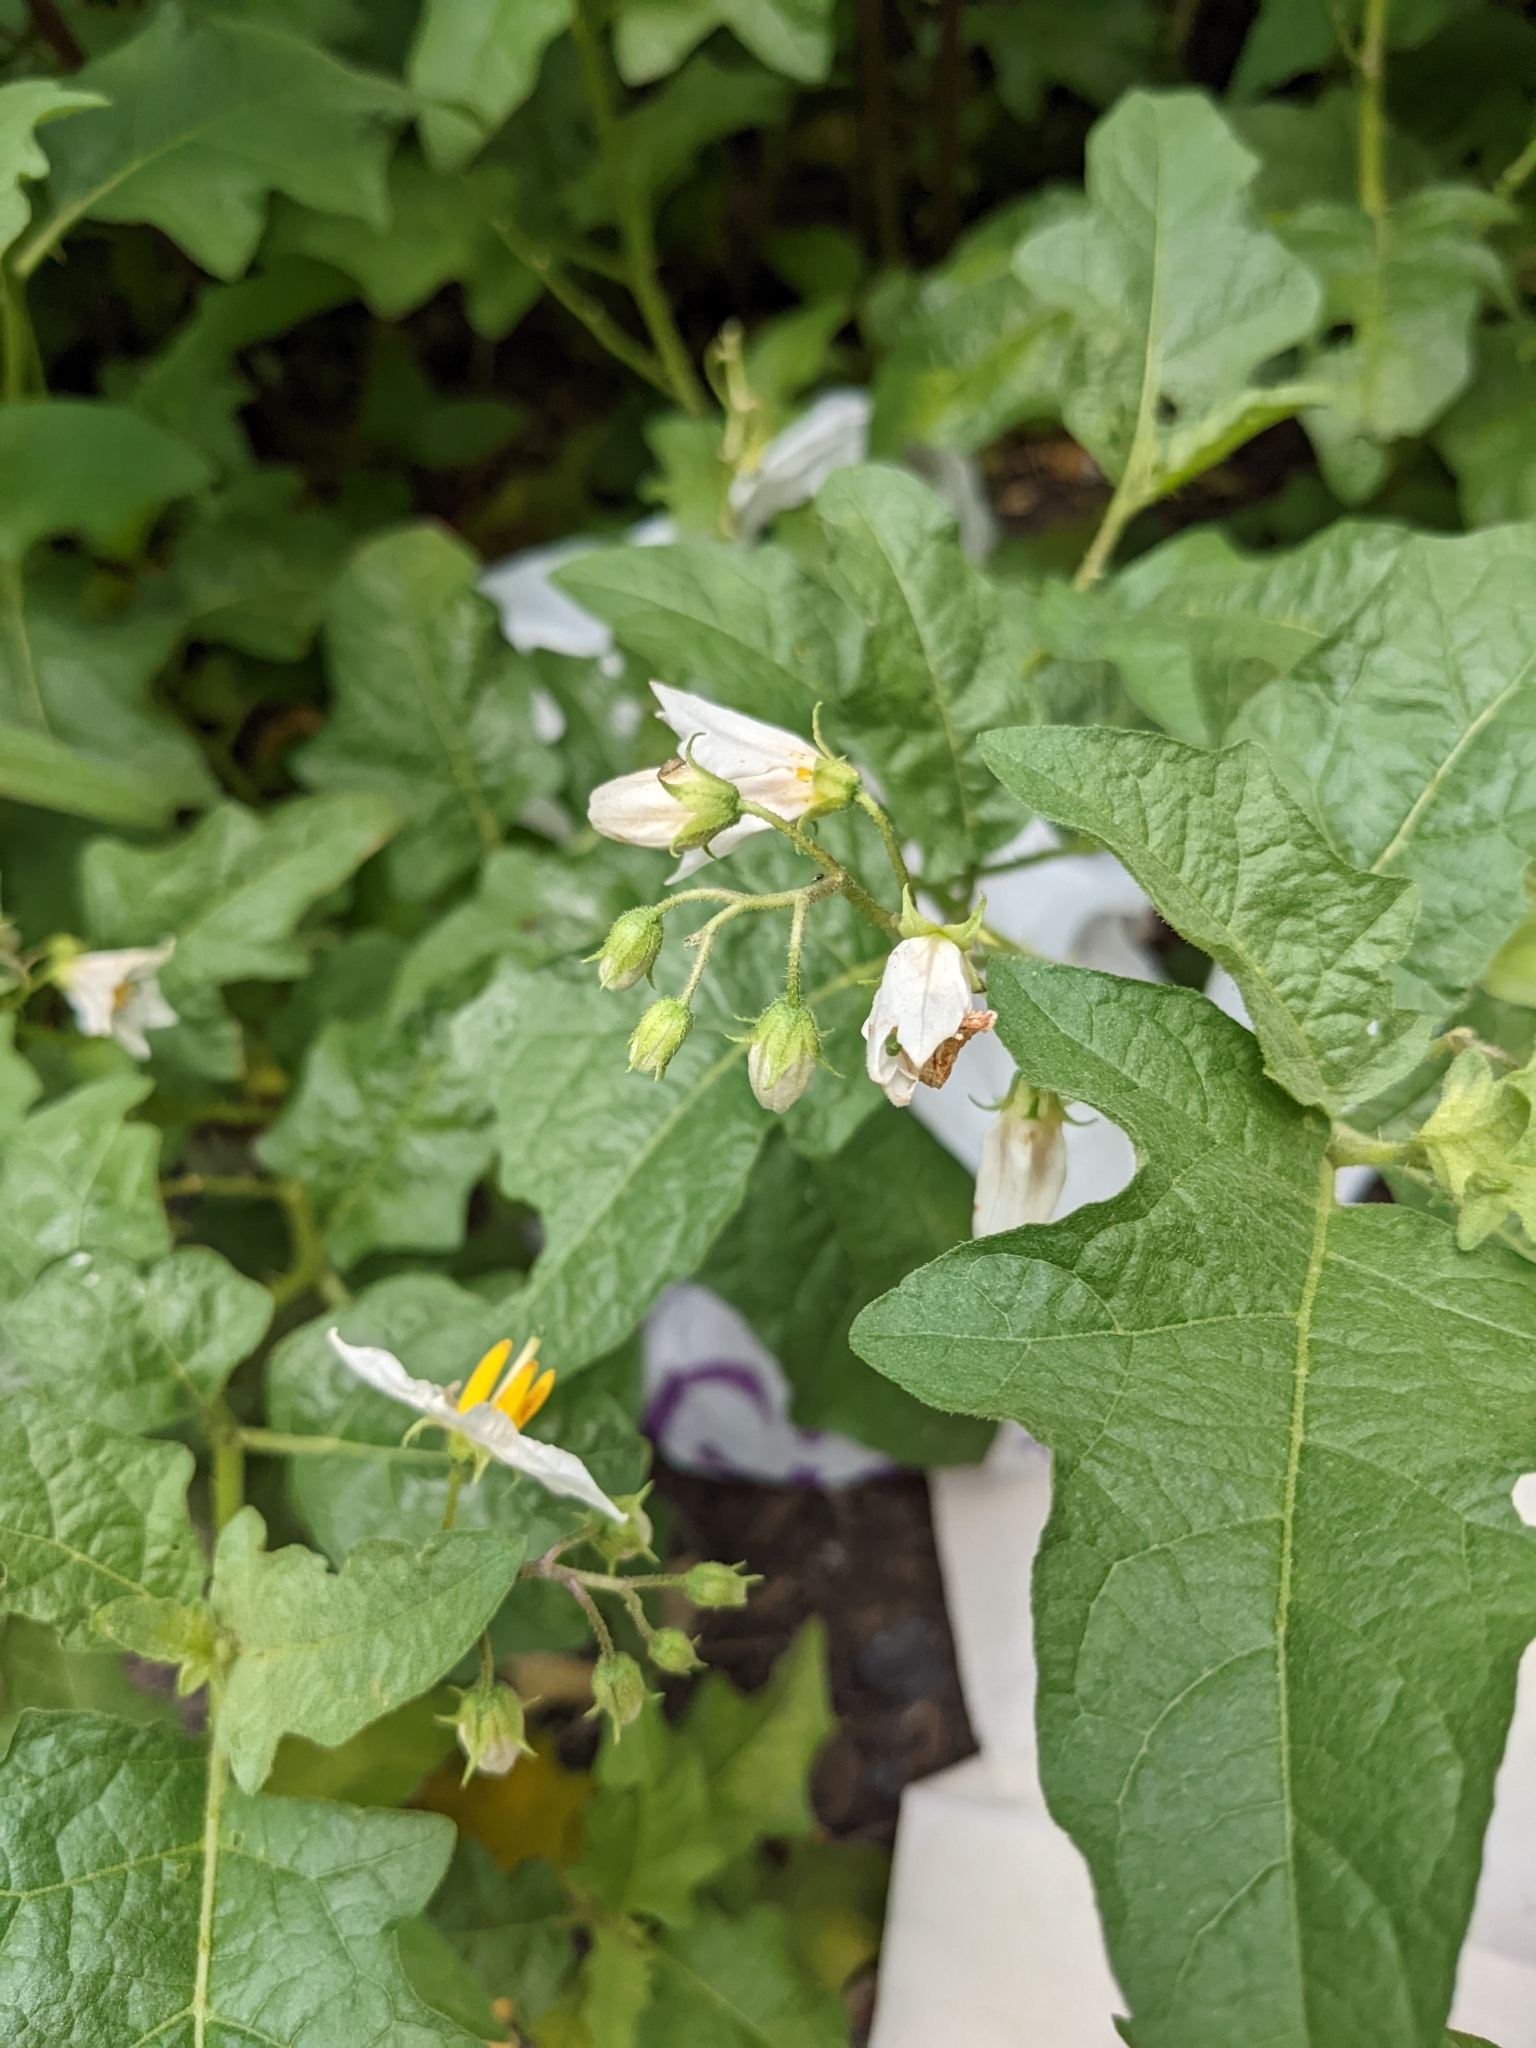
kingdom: Plantae
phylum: Tracheophyta
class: Magnoliopsida
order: Solanales
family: Solanaceae
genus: Solanum
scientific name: Solanum carolinense
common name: Horse-nettle
